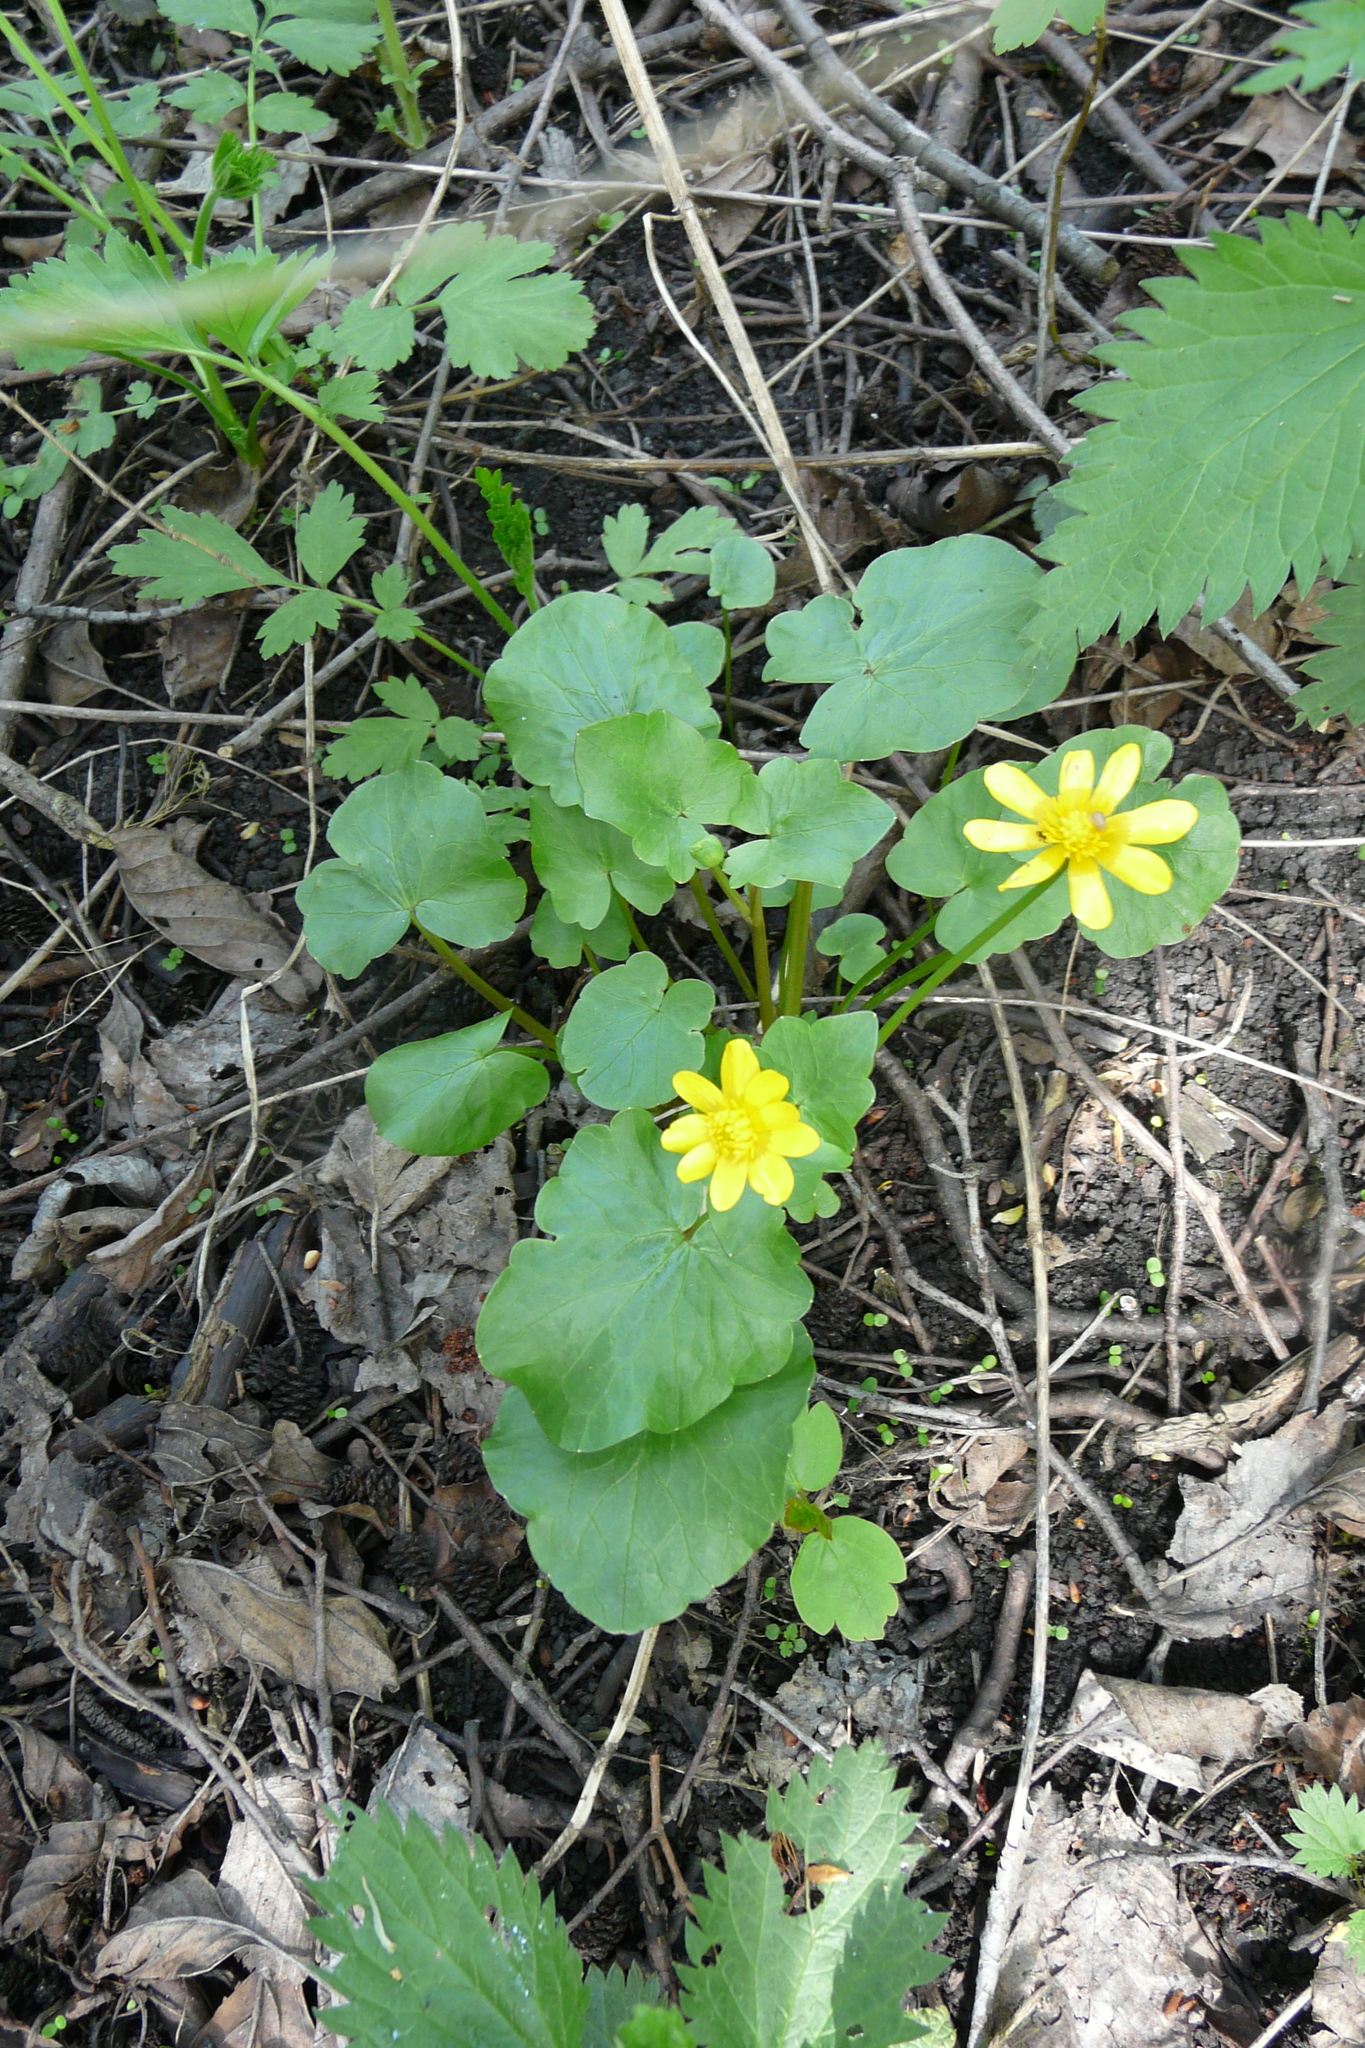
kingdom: Plantae
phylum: Tracheophyta
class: Magnoliopsida
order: Ranunculales
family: Ranunculaceae
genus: Ficaria
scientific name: Ficaria verna
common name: Lesser celandine
